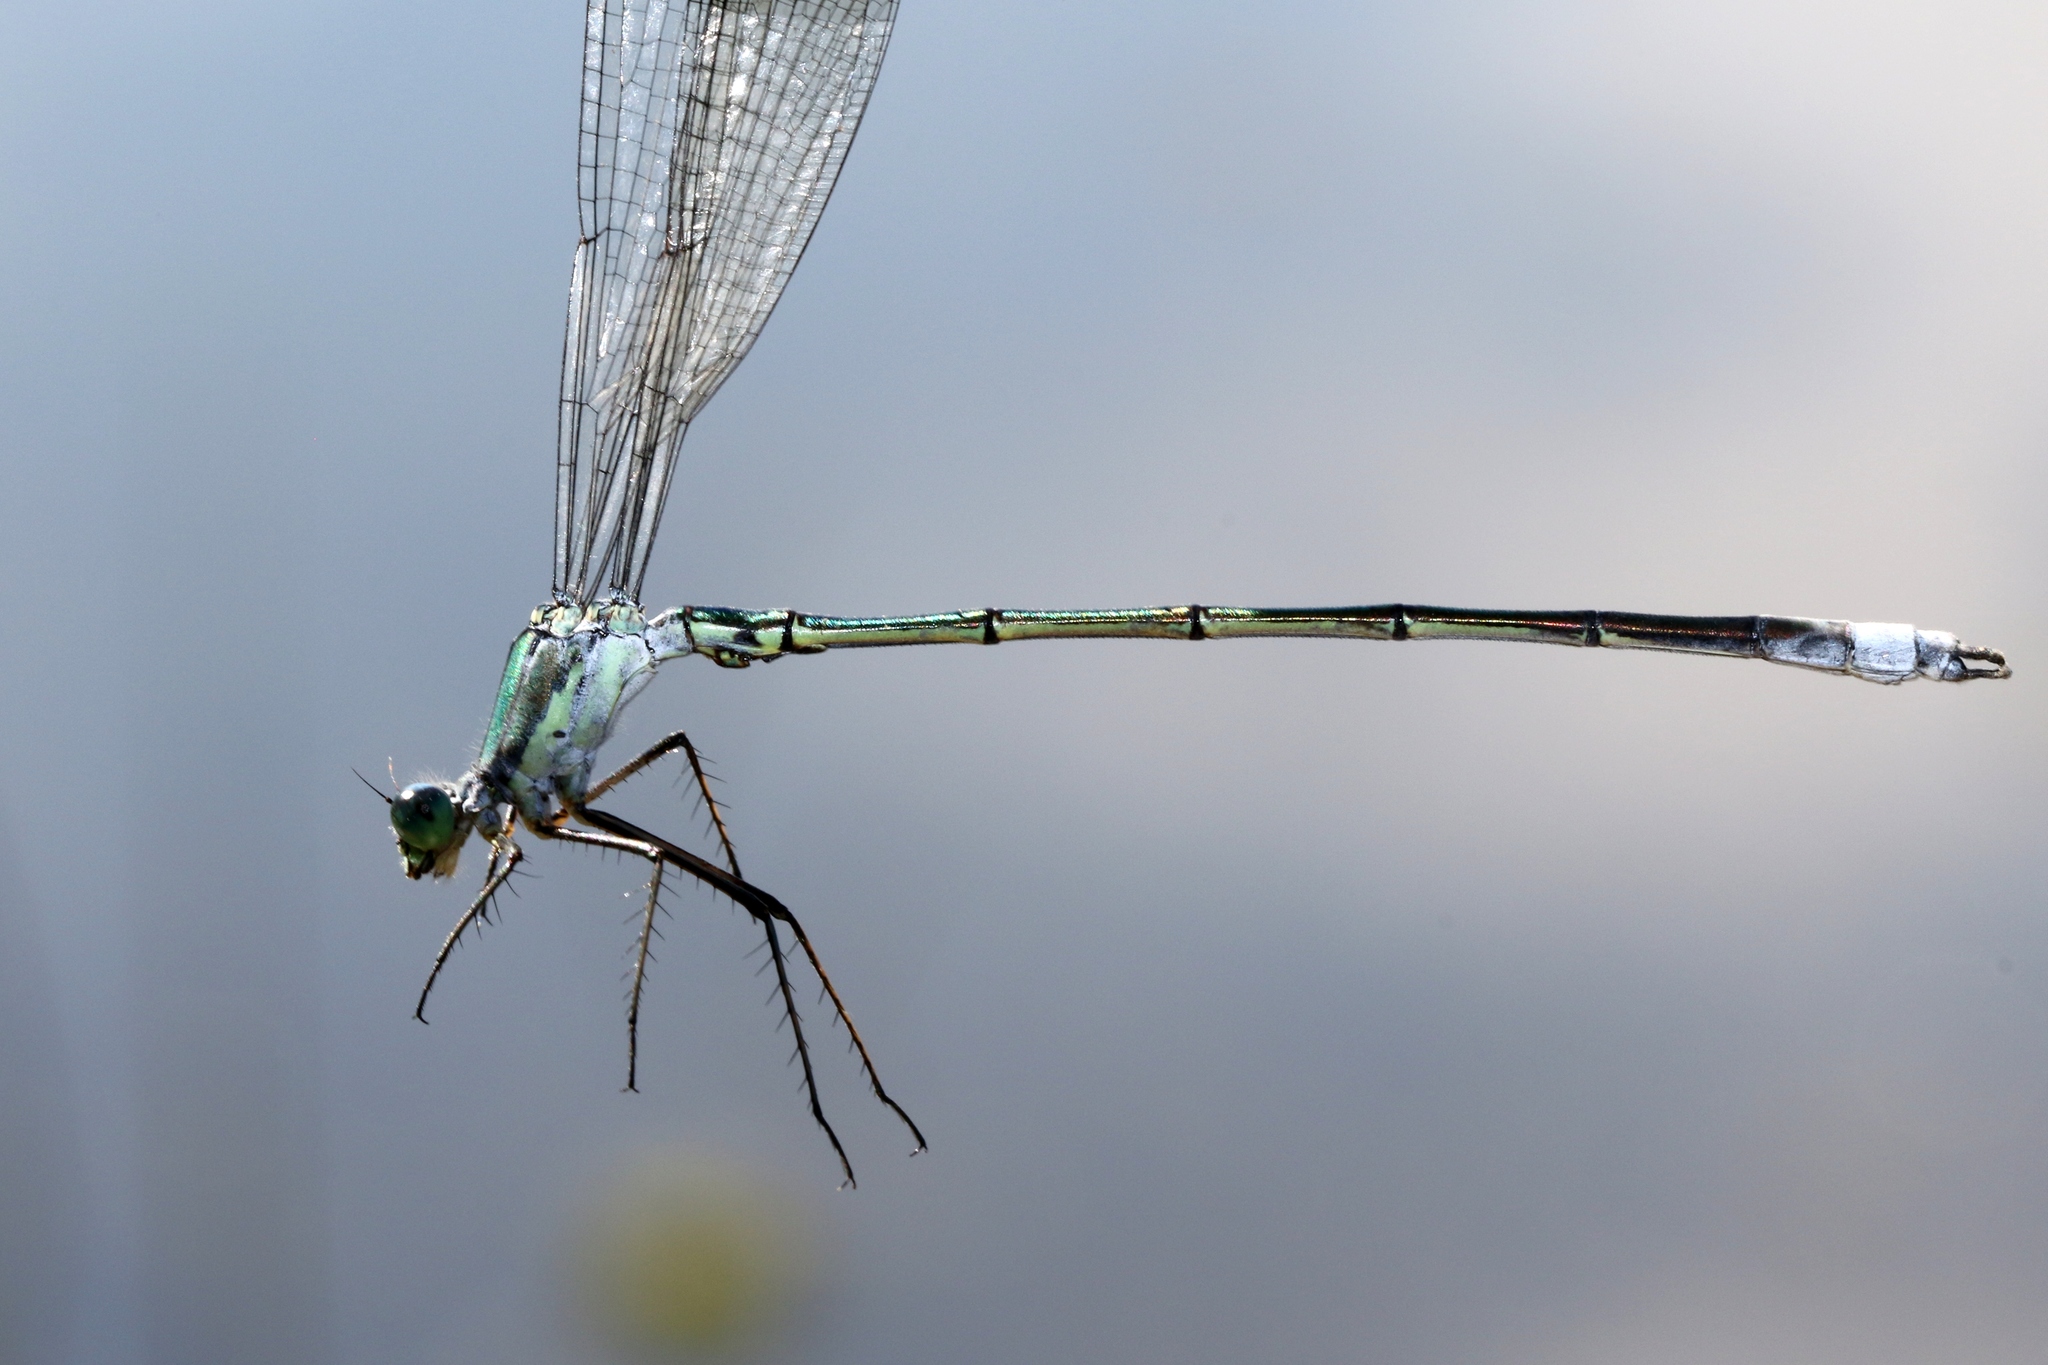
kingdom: Animalia
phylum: Arthropoda
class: Insecta
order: Odonata
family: Lestidae
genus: Lestes
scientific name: Lestes inaequalis
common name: Elegant spreadwing
